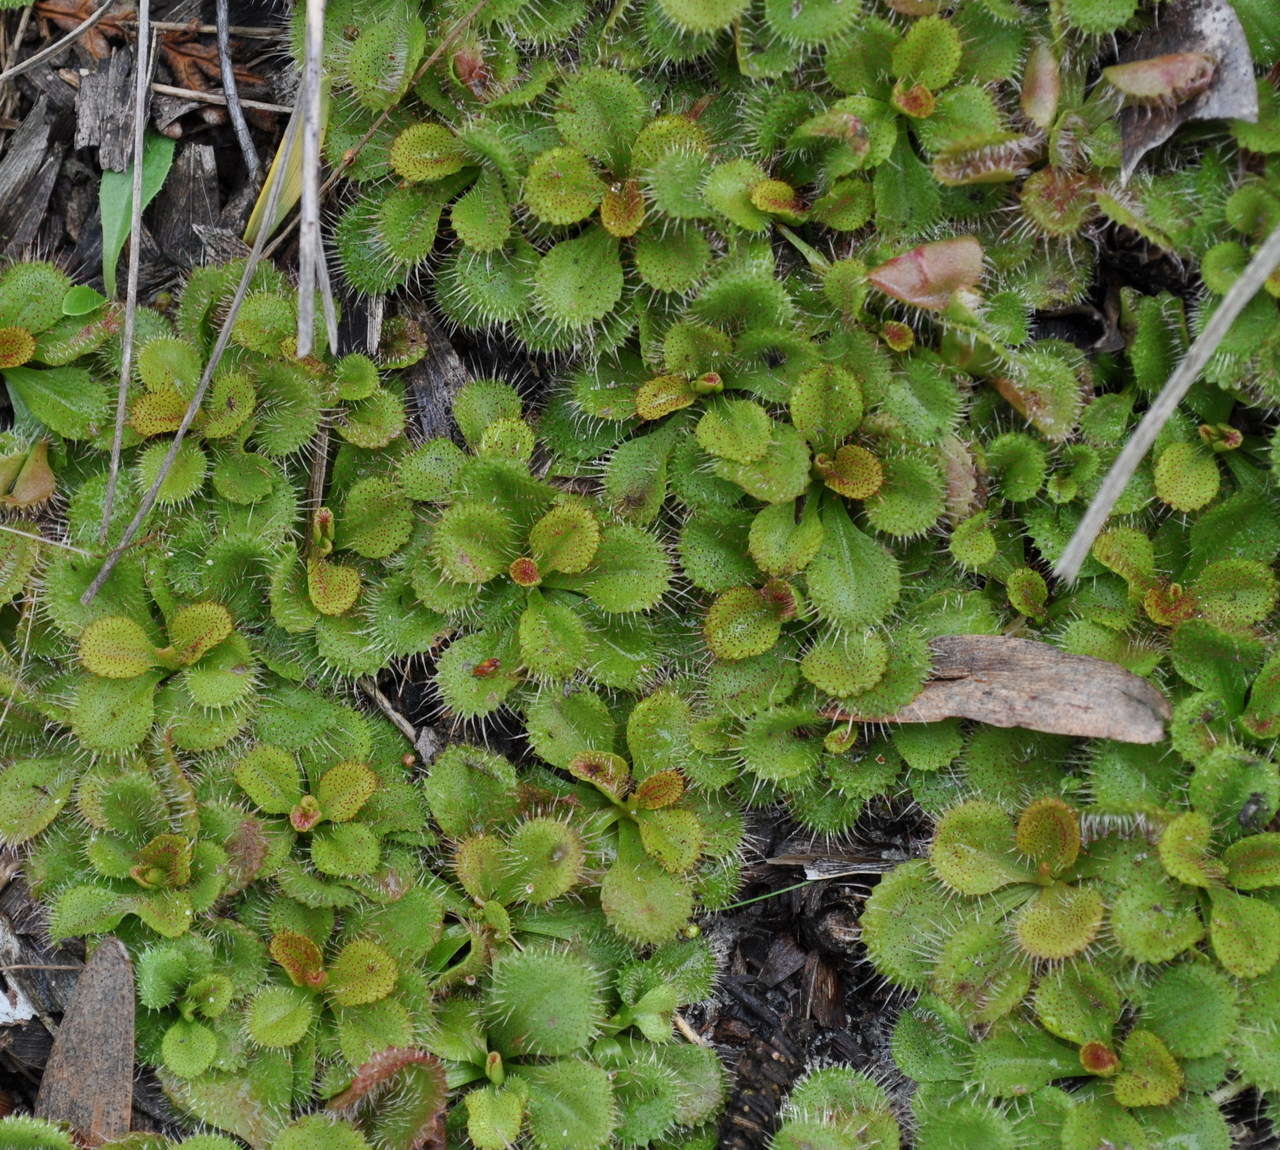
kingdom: Plantae
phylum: Tracheophyta
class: Magnoliopsida
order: Caryophyllales
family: Droseraceae
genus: Drosera
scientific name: Drosera aberrans
